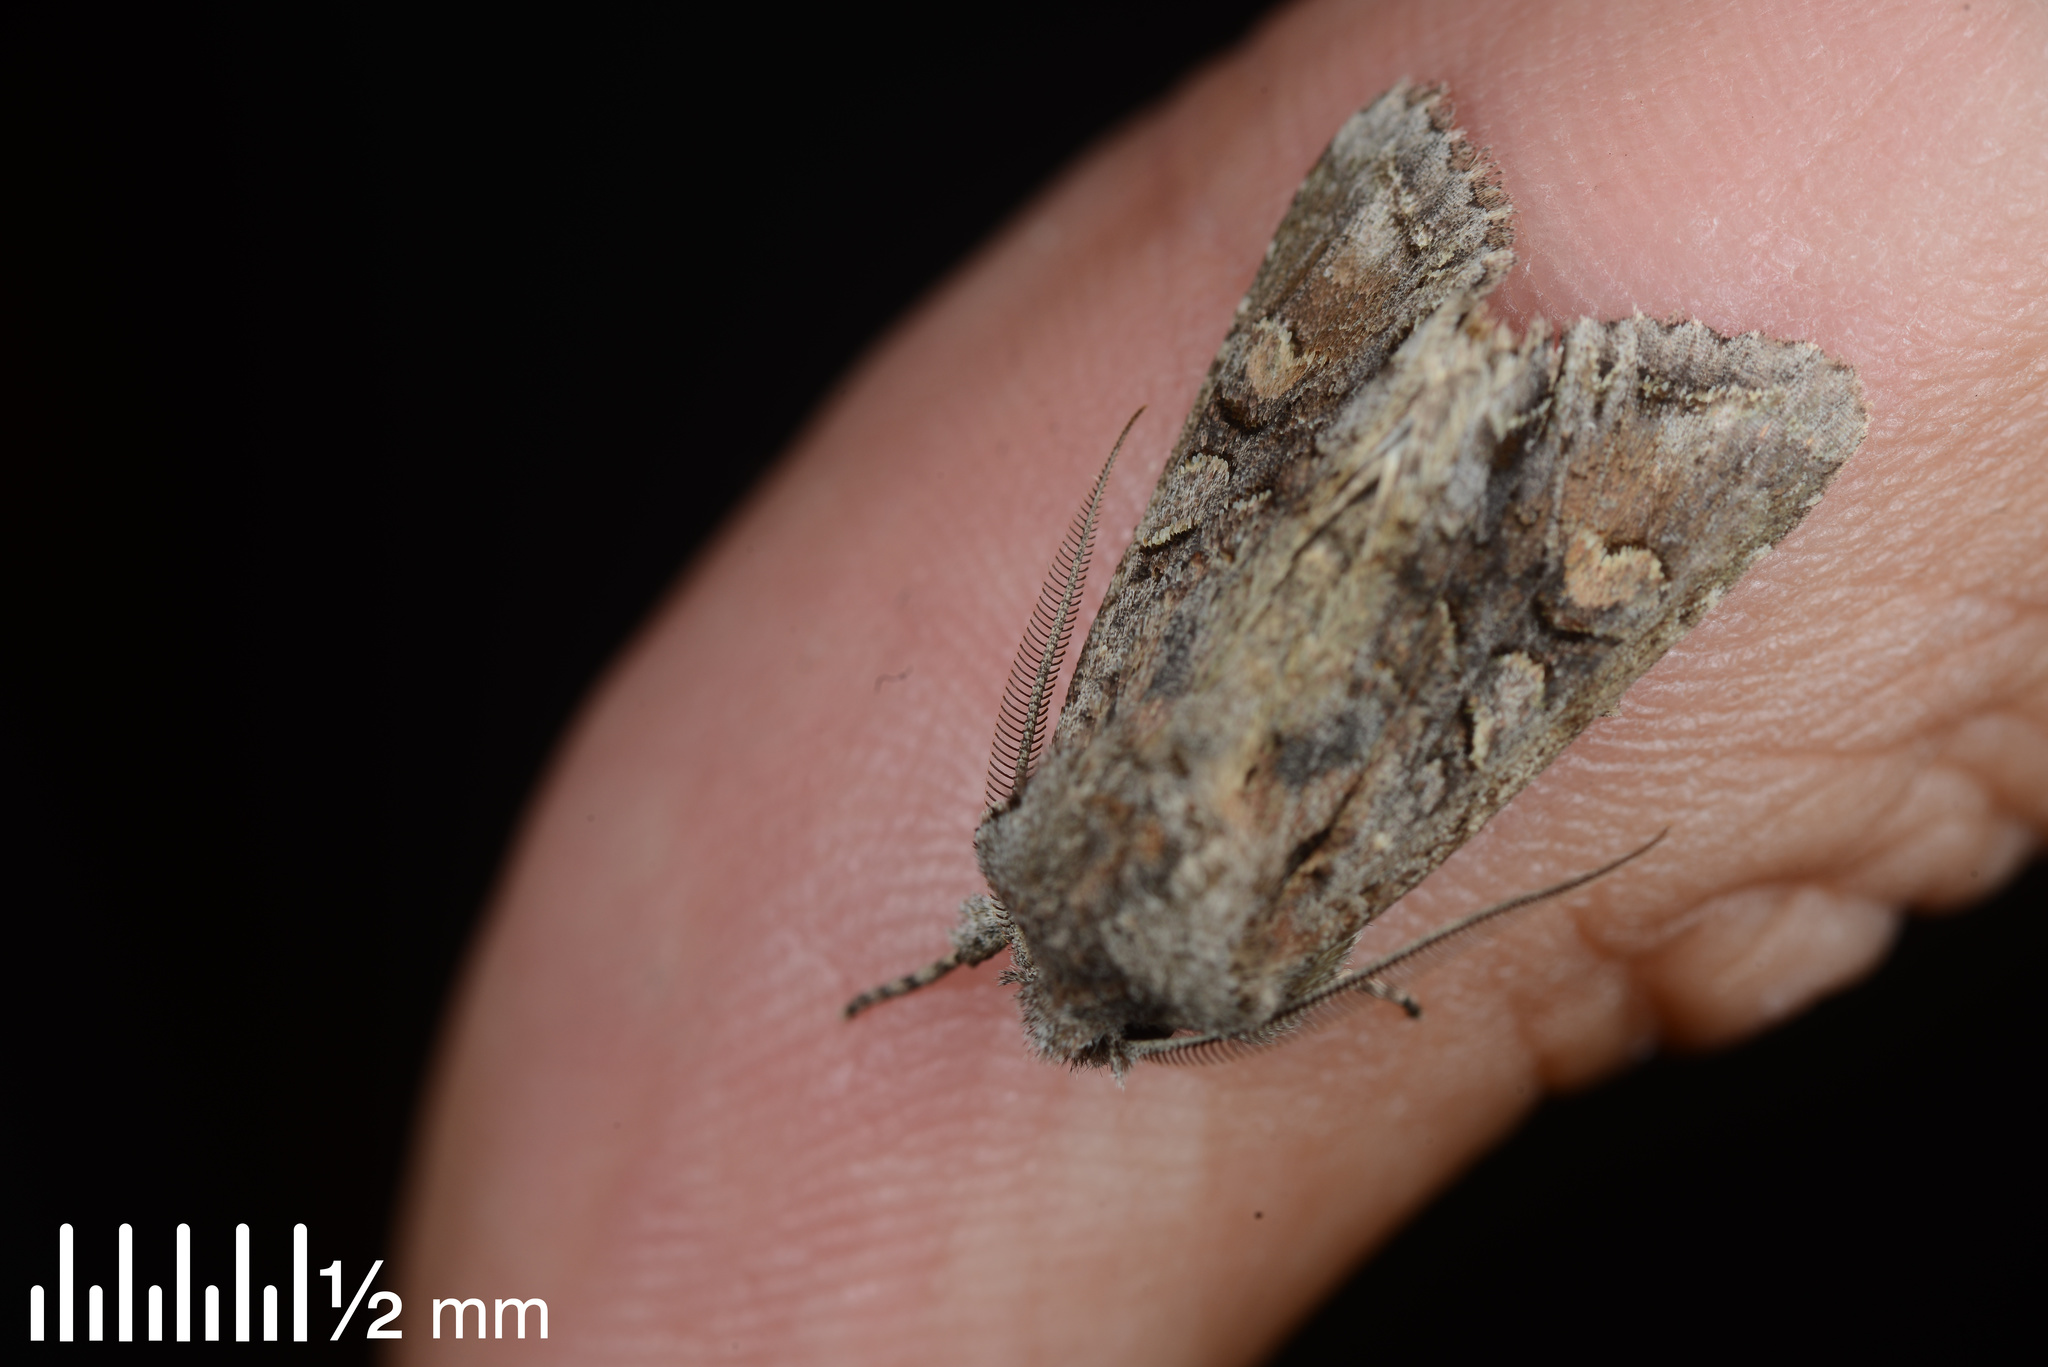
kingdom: Animalia
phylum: Arthropoda
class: Insecta
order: Lepidoptera
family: Noctuidae
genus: Ichneutica
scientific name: Ichneutica
